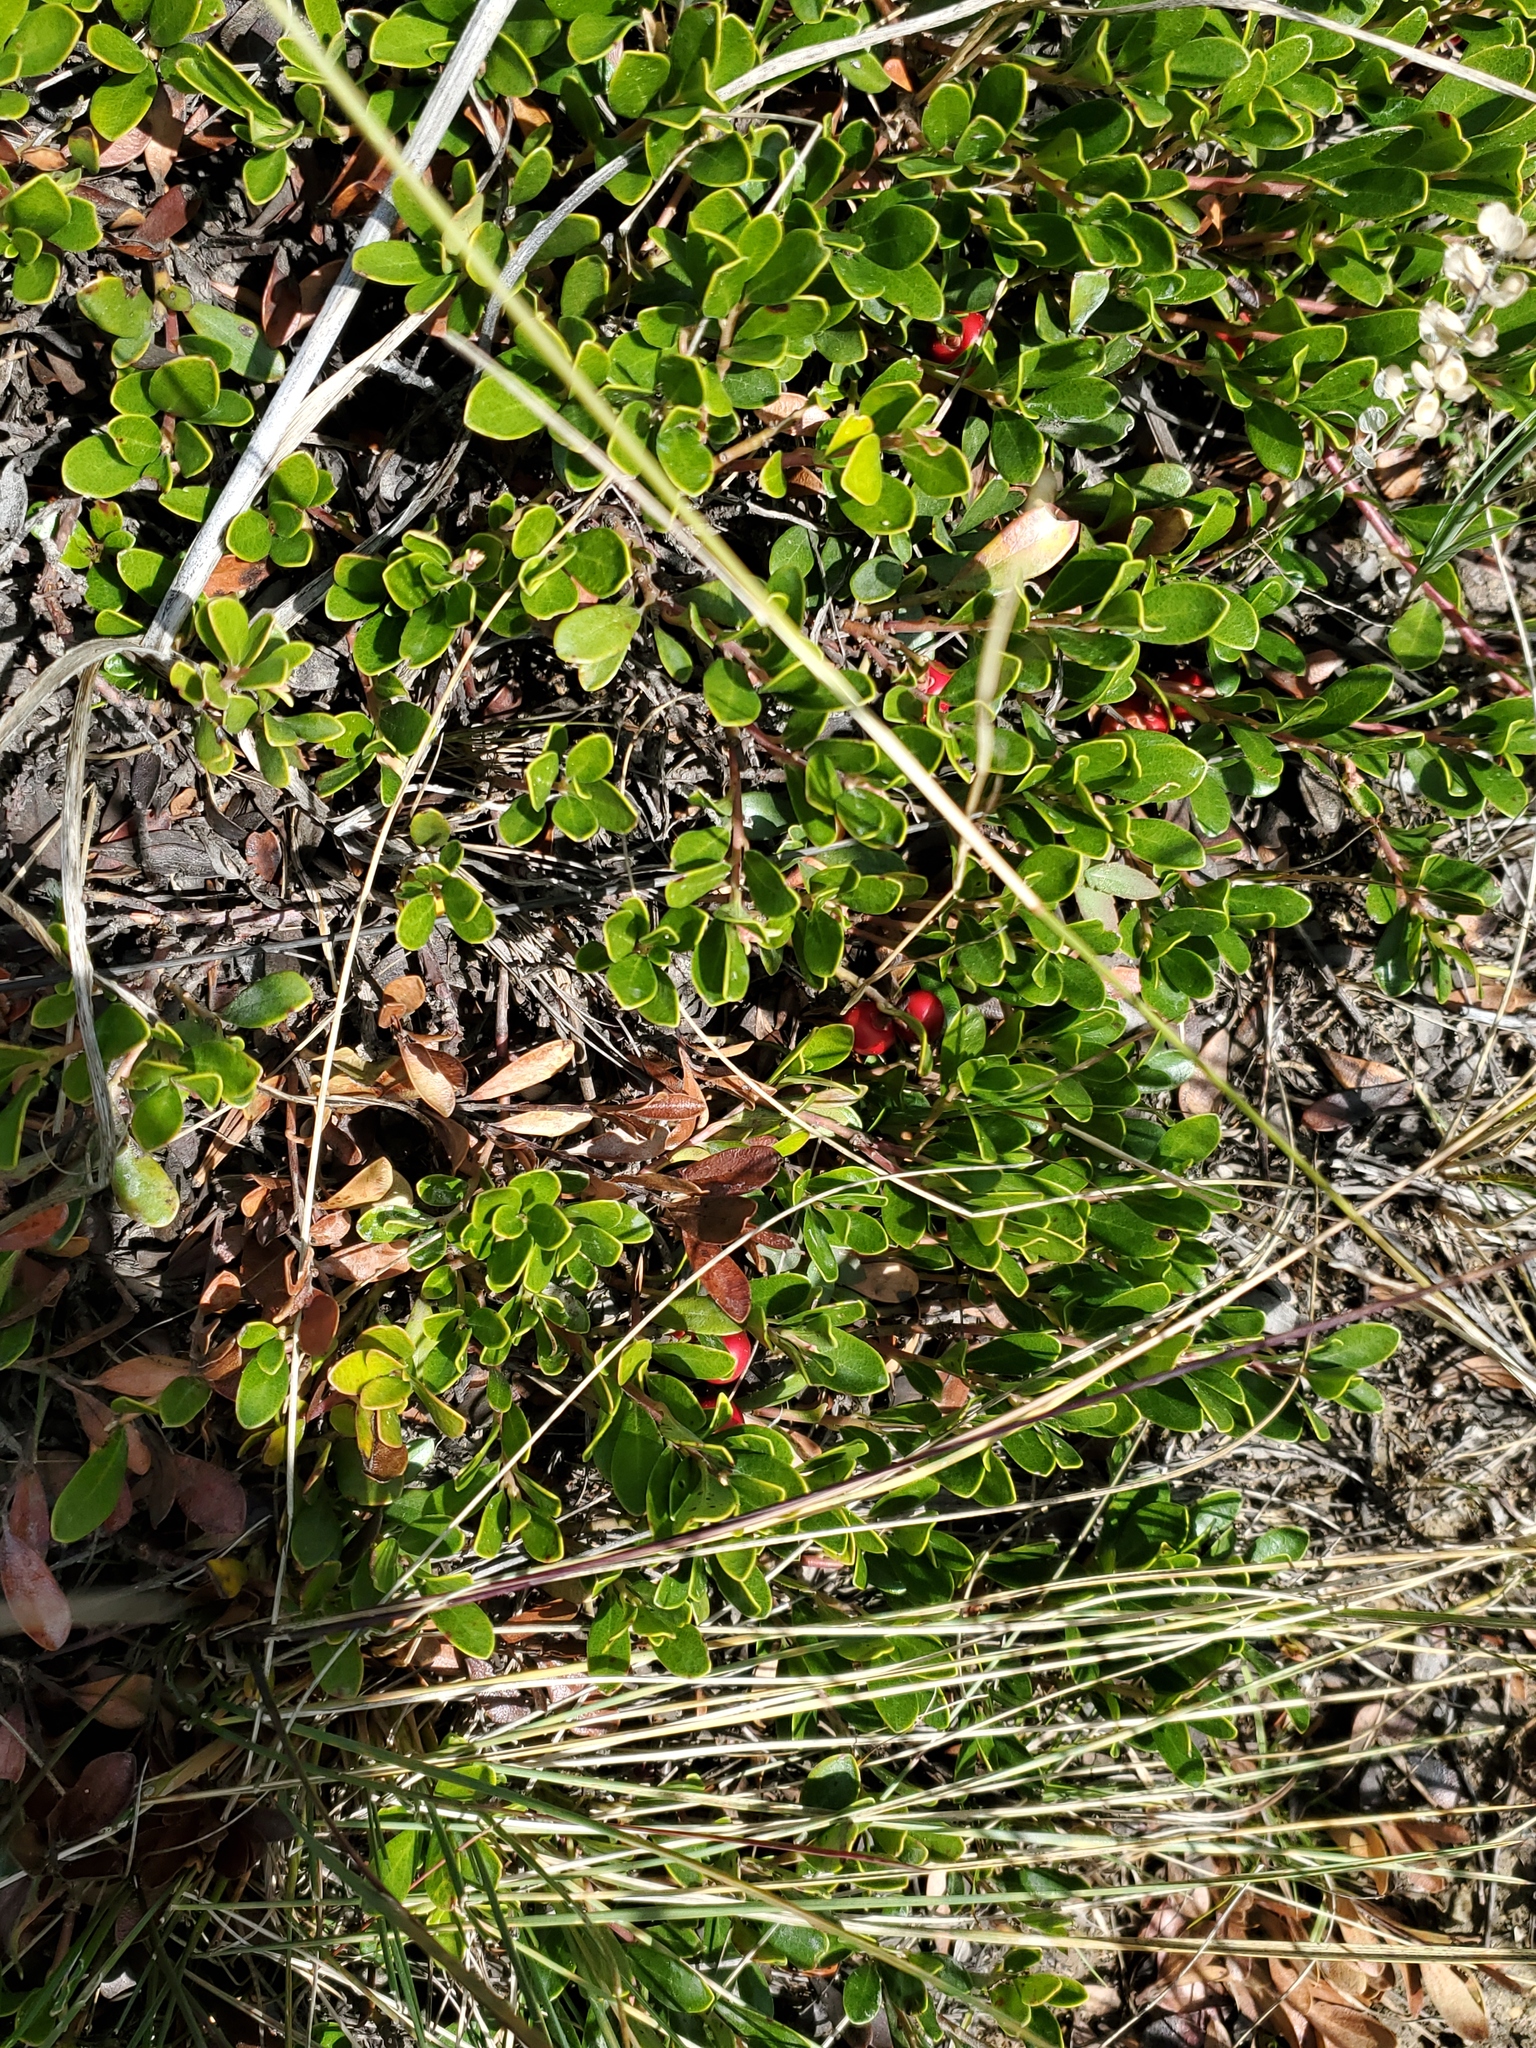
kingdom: Plantae
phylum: Tracheophyta
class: Magnoliopsida
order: Ericales
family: Ericaceae
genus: Arctostaphylos
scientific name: Arctostaphylos uva-ursi
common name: Bearberry
